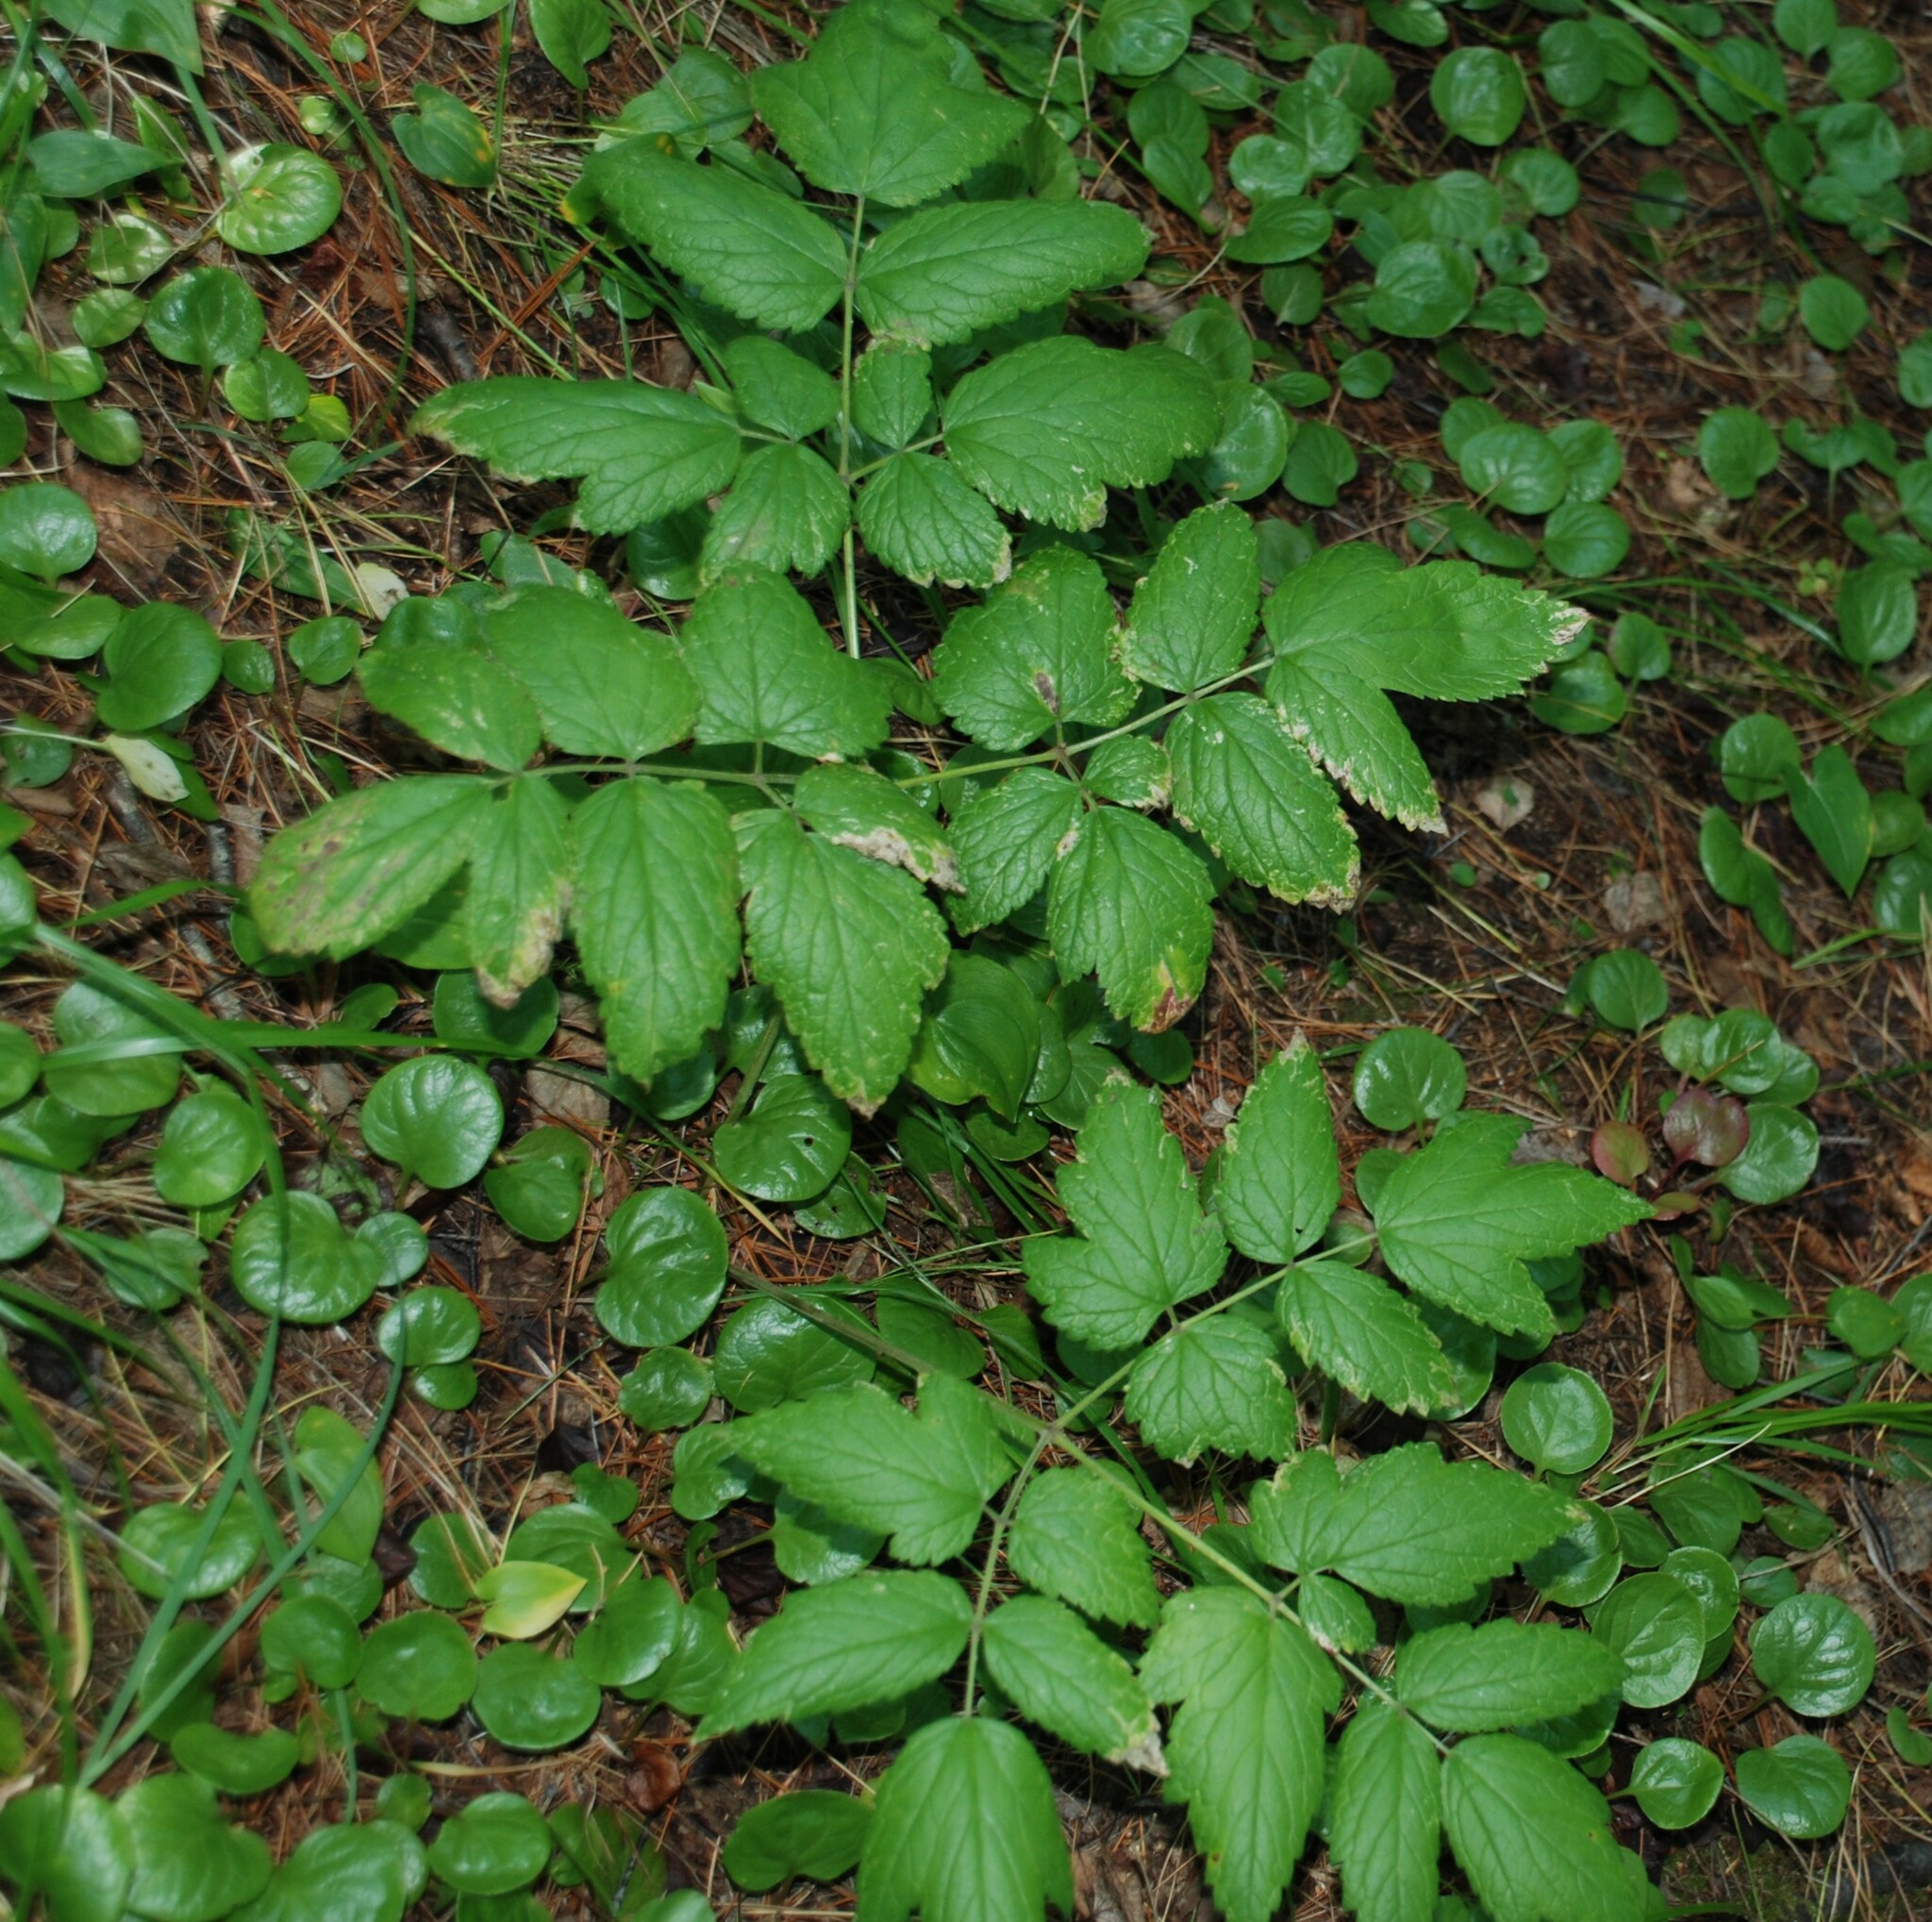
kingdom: Plantae
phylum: Tracheophyta
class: Magnoliopsida
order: Ranunculales
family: Ranunculaceae
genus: Actaea
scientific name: Actaea cimicifuga
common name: Chinese cimicifuga
